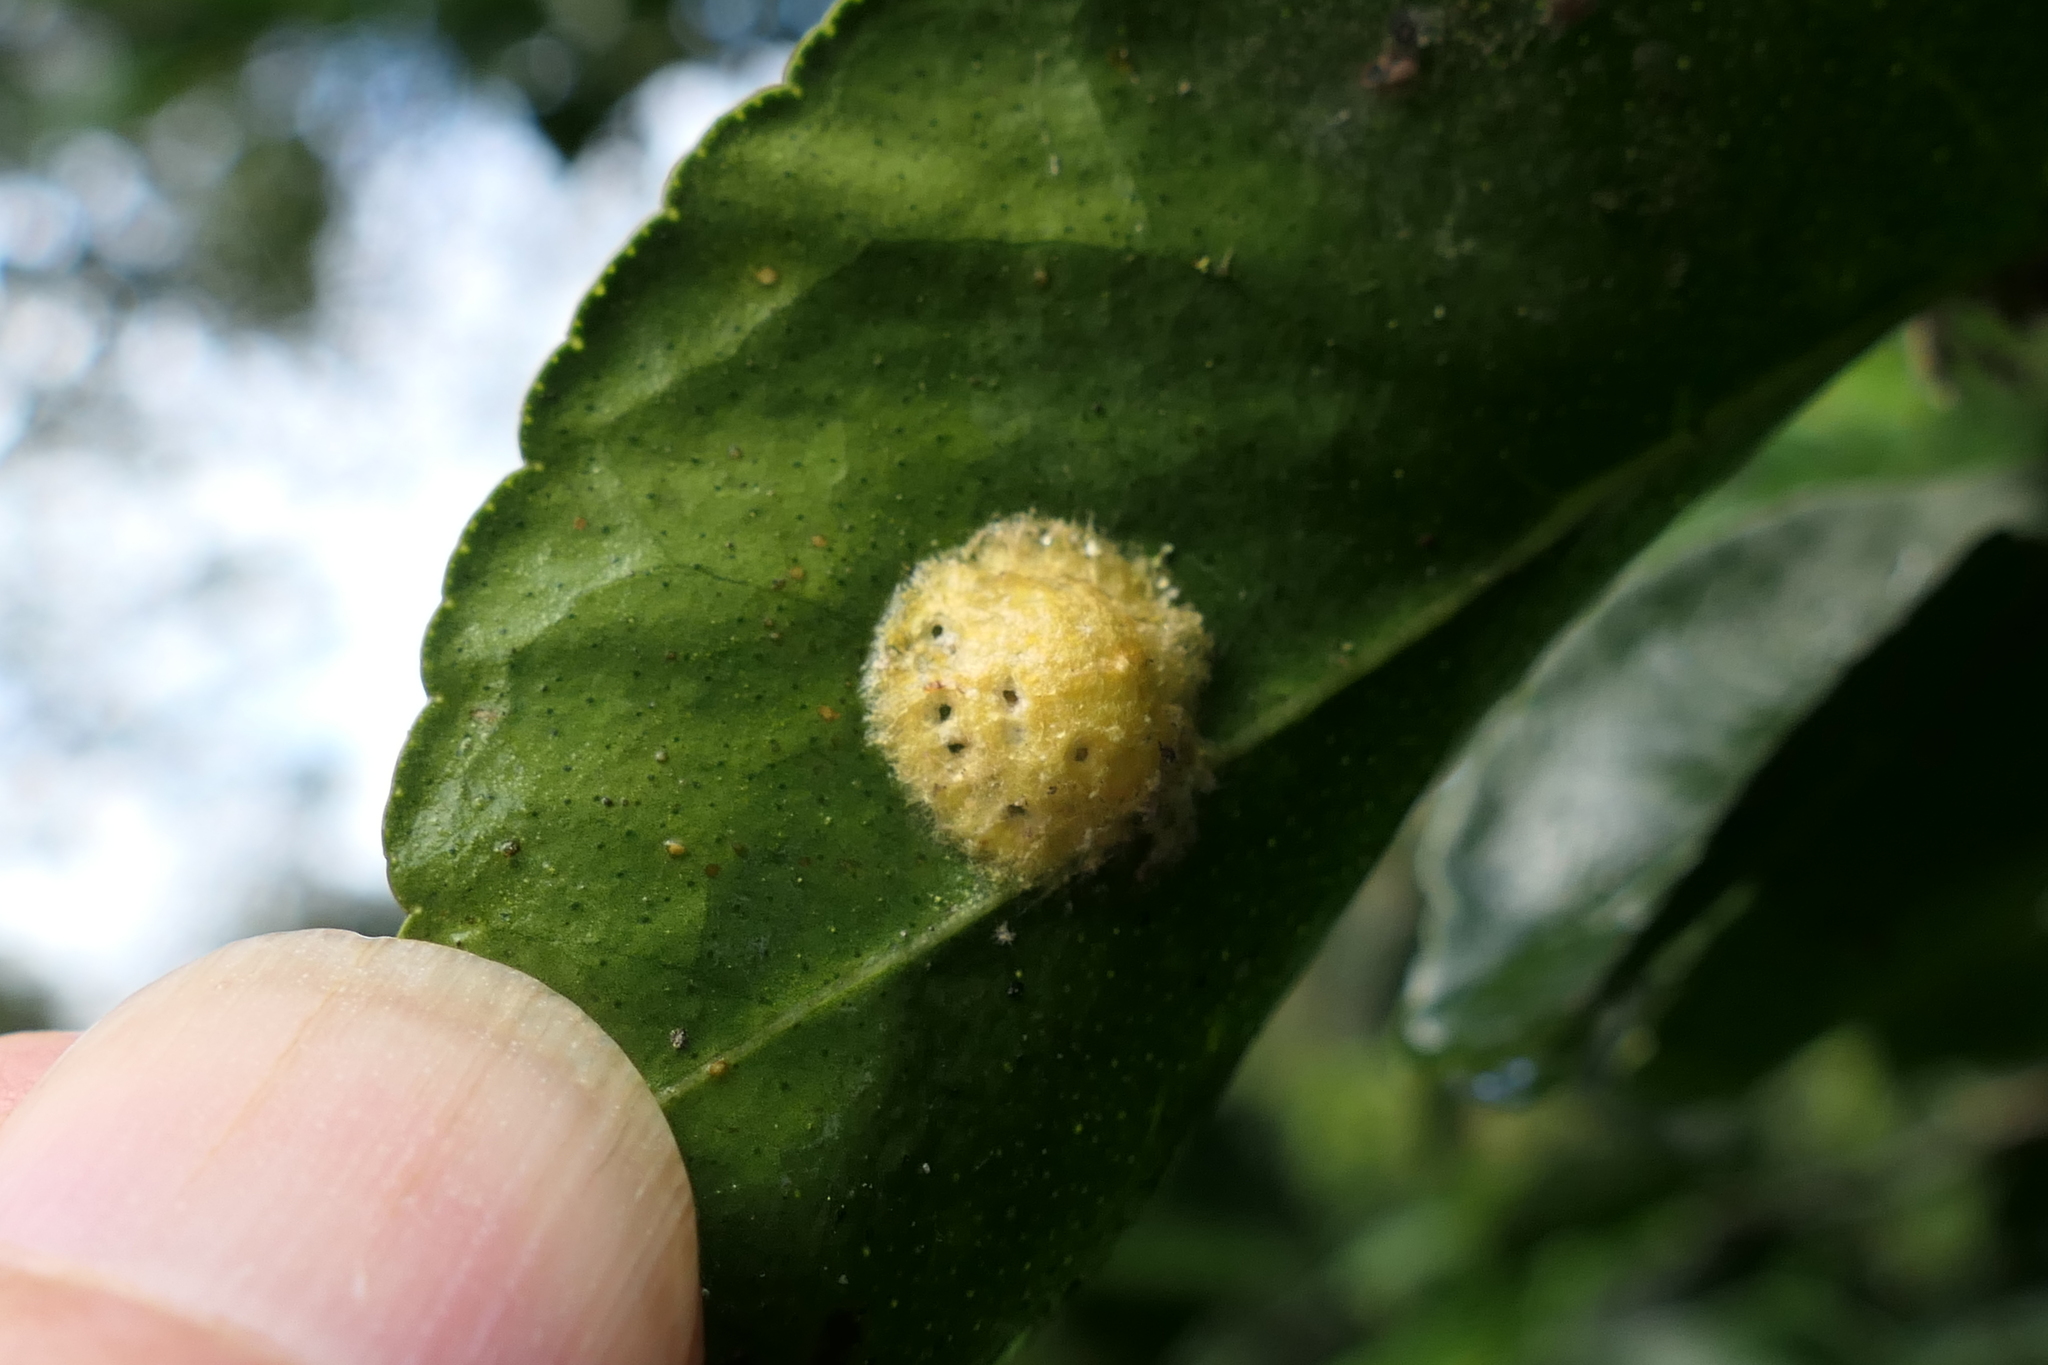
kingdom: Animalia
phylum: Arthropoda
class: Arachnida
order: Araneae
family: Araneidae
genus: Alpaida
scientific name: Alpaida bicornuta
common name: Orb weavers
